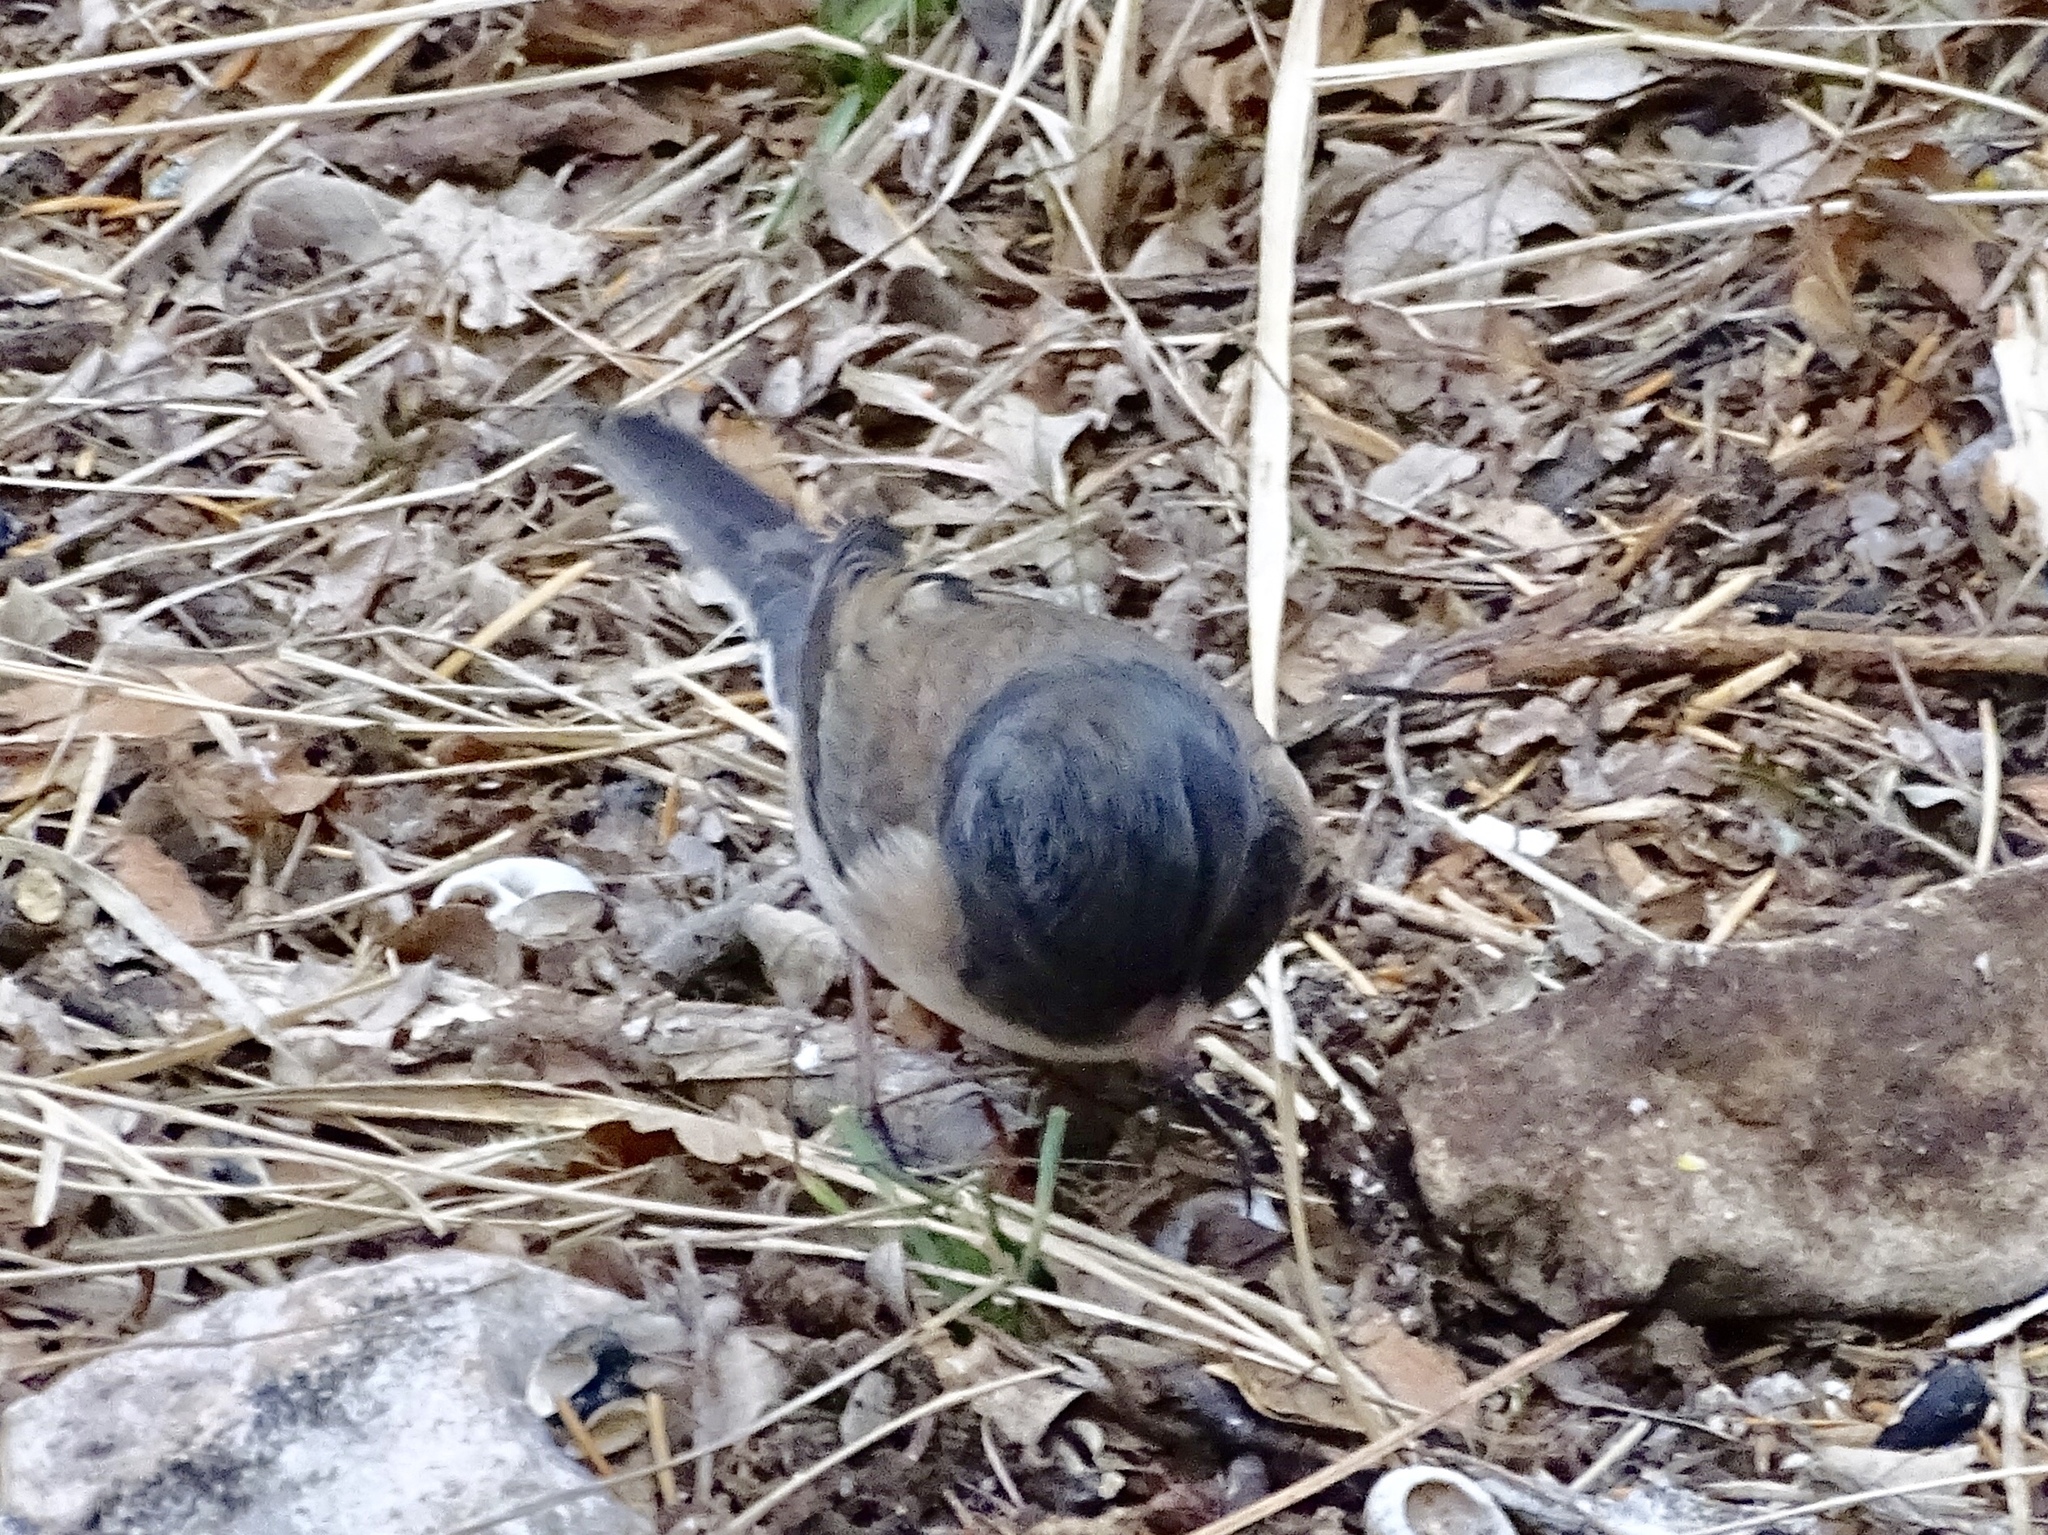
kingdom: Animalia
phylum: Chordata
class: Aves
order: Passeriformes
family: Passerellidae
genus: Junco
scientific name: Junco hyemalis
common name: Dark-eyed junco
